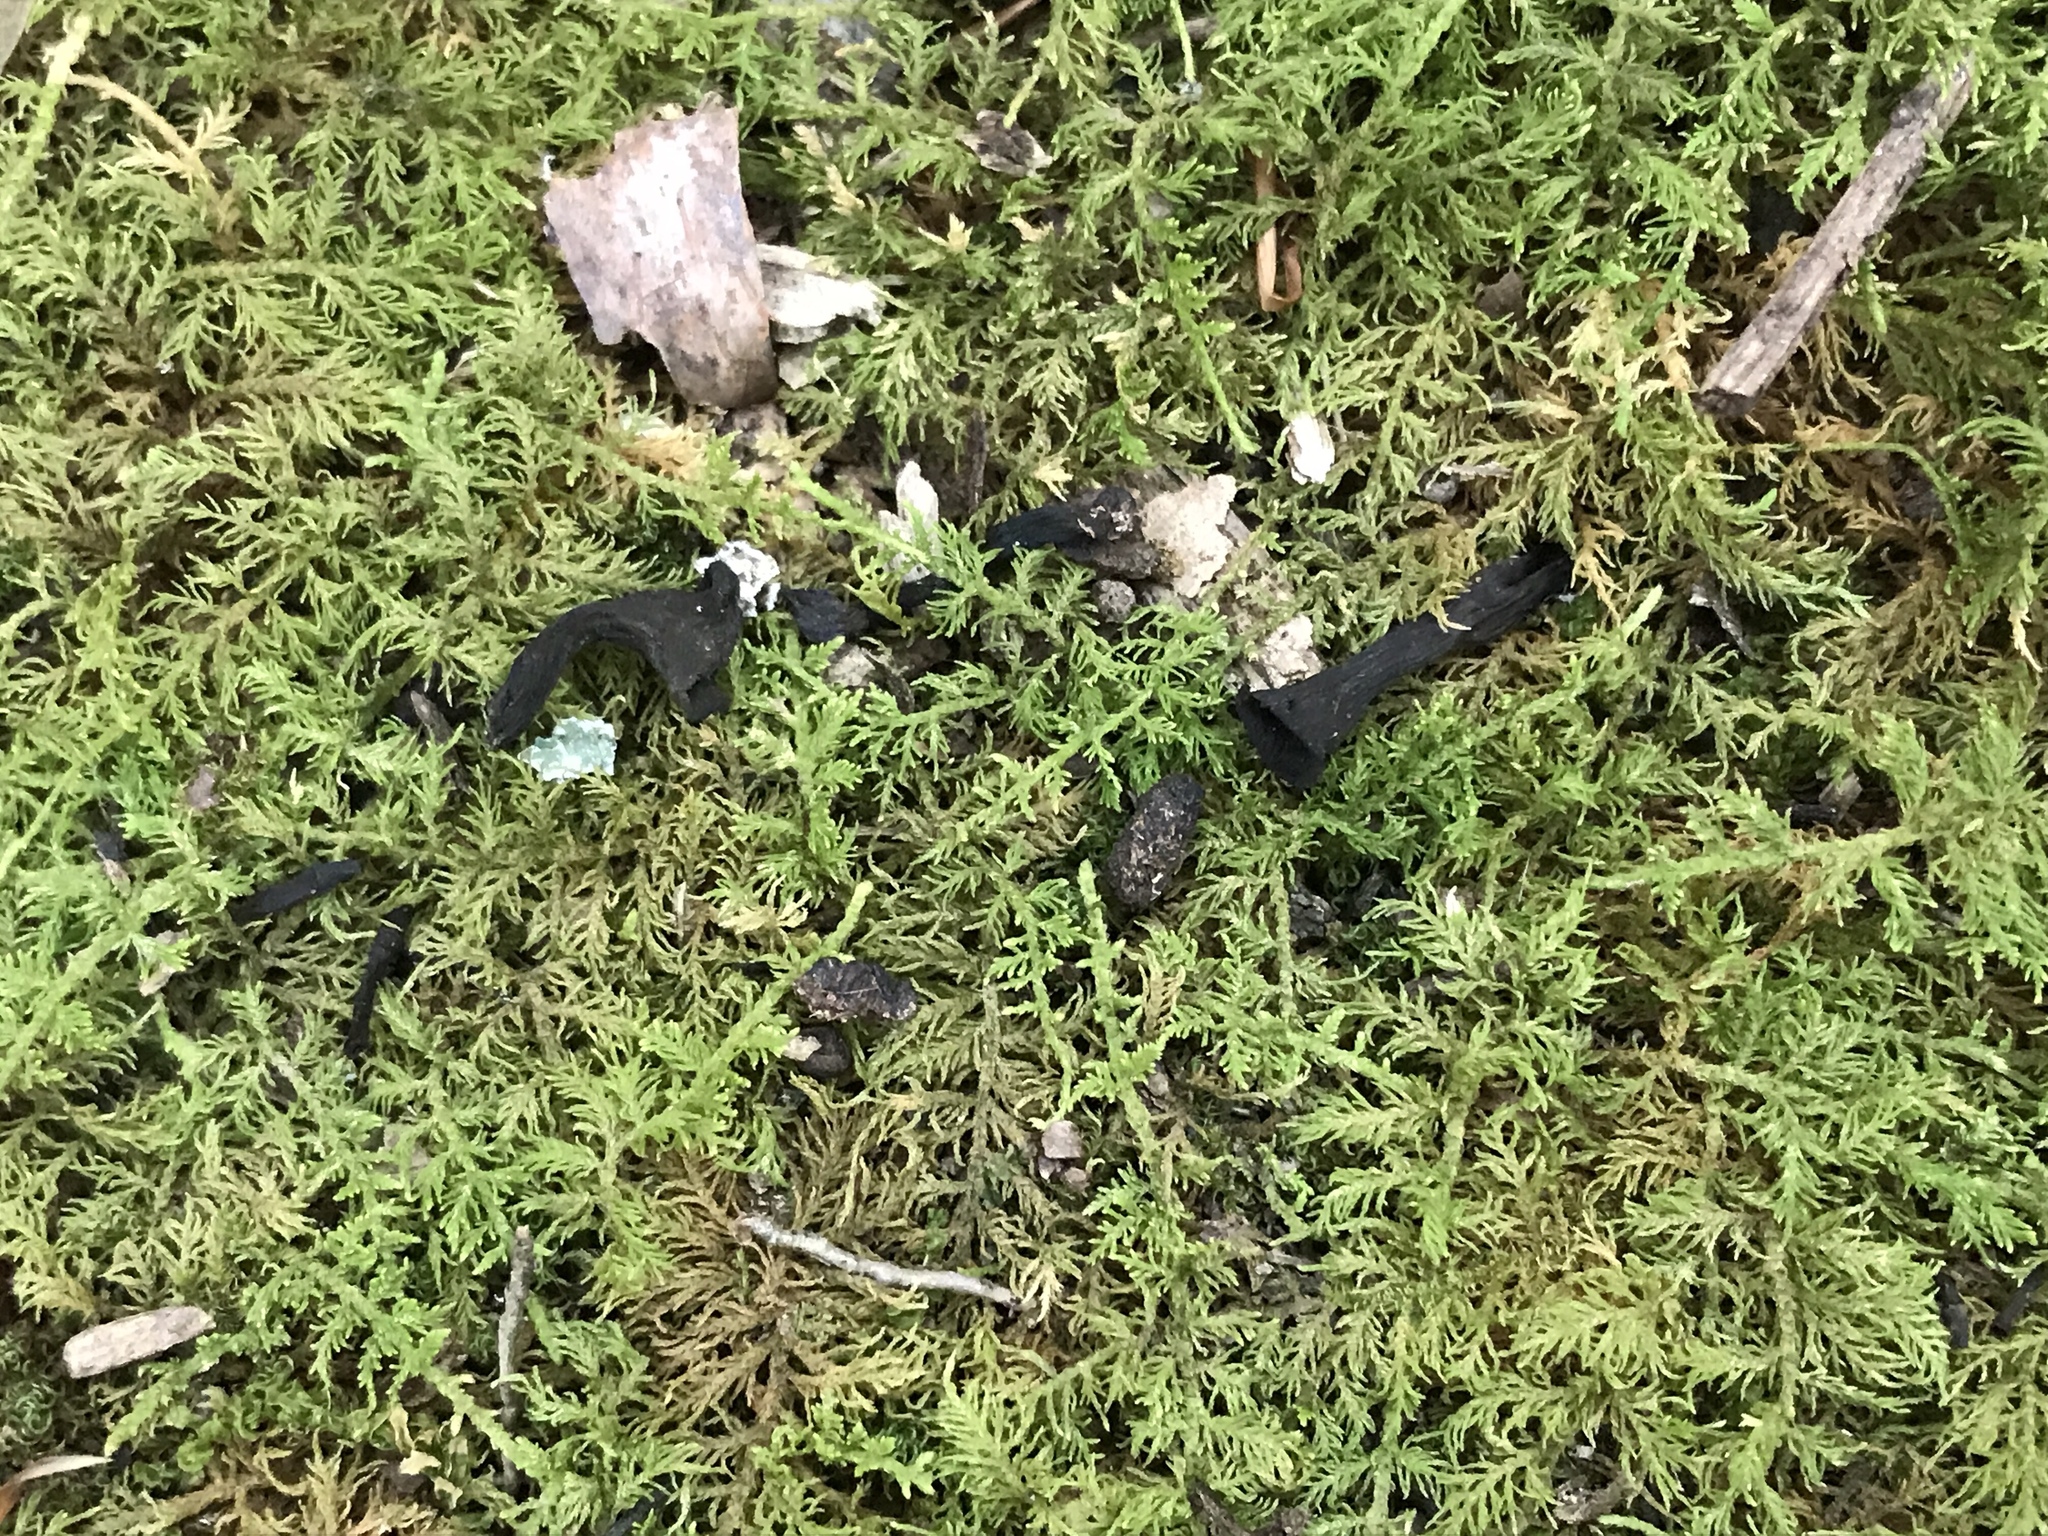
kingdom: Fungi
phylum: Basidiomycota
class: Agaricomycetes
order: Cantharellales
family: Hydnaceae
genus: Craterellus
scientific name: Craterellus cornucopioides
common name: Horn of plenty
